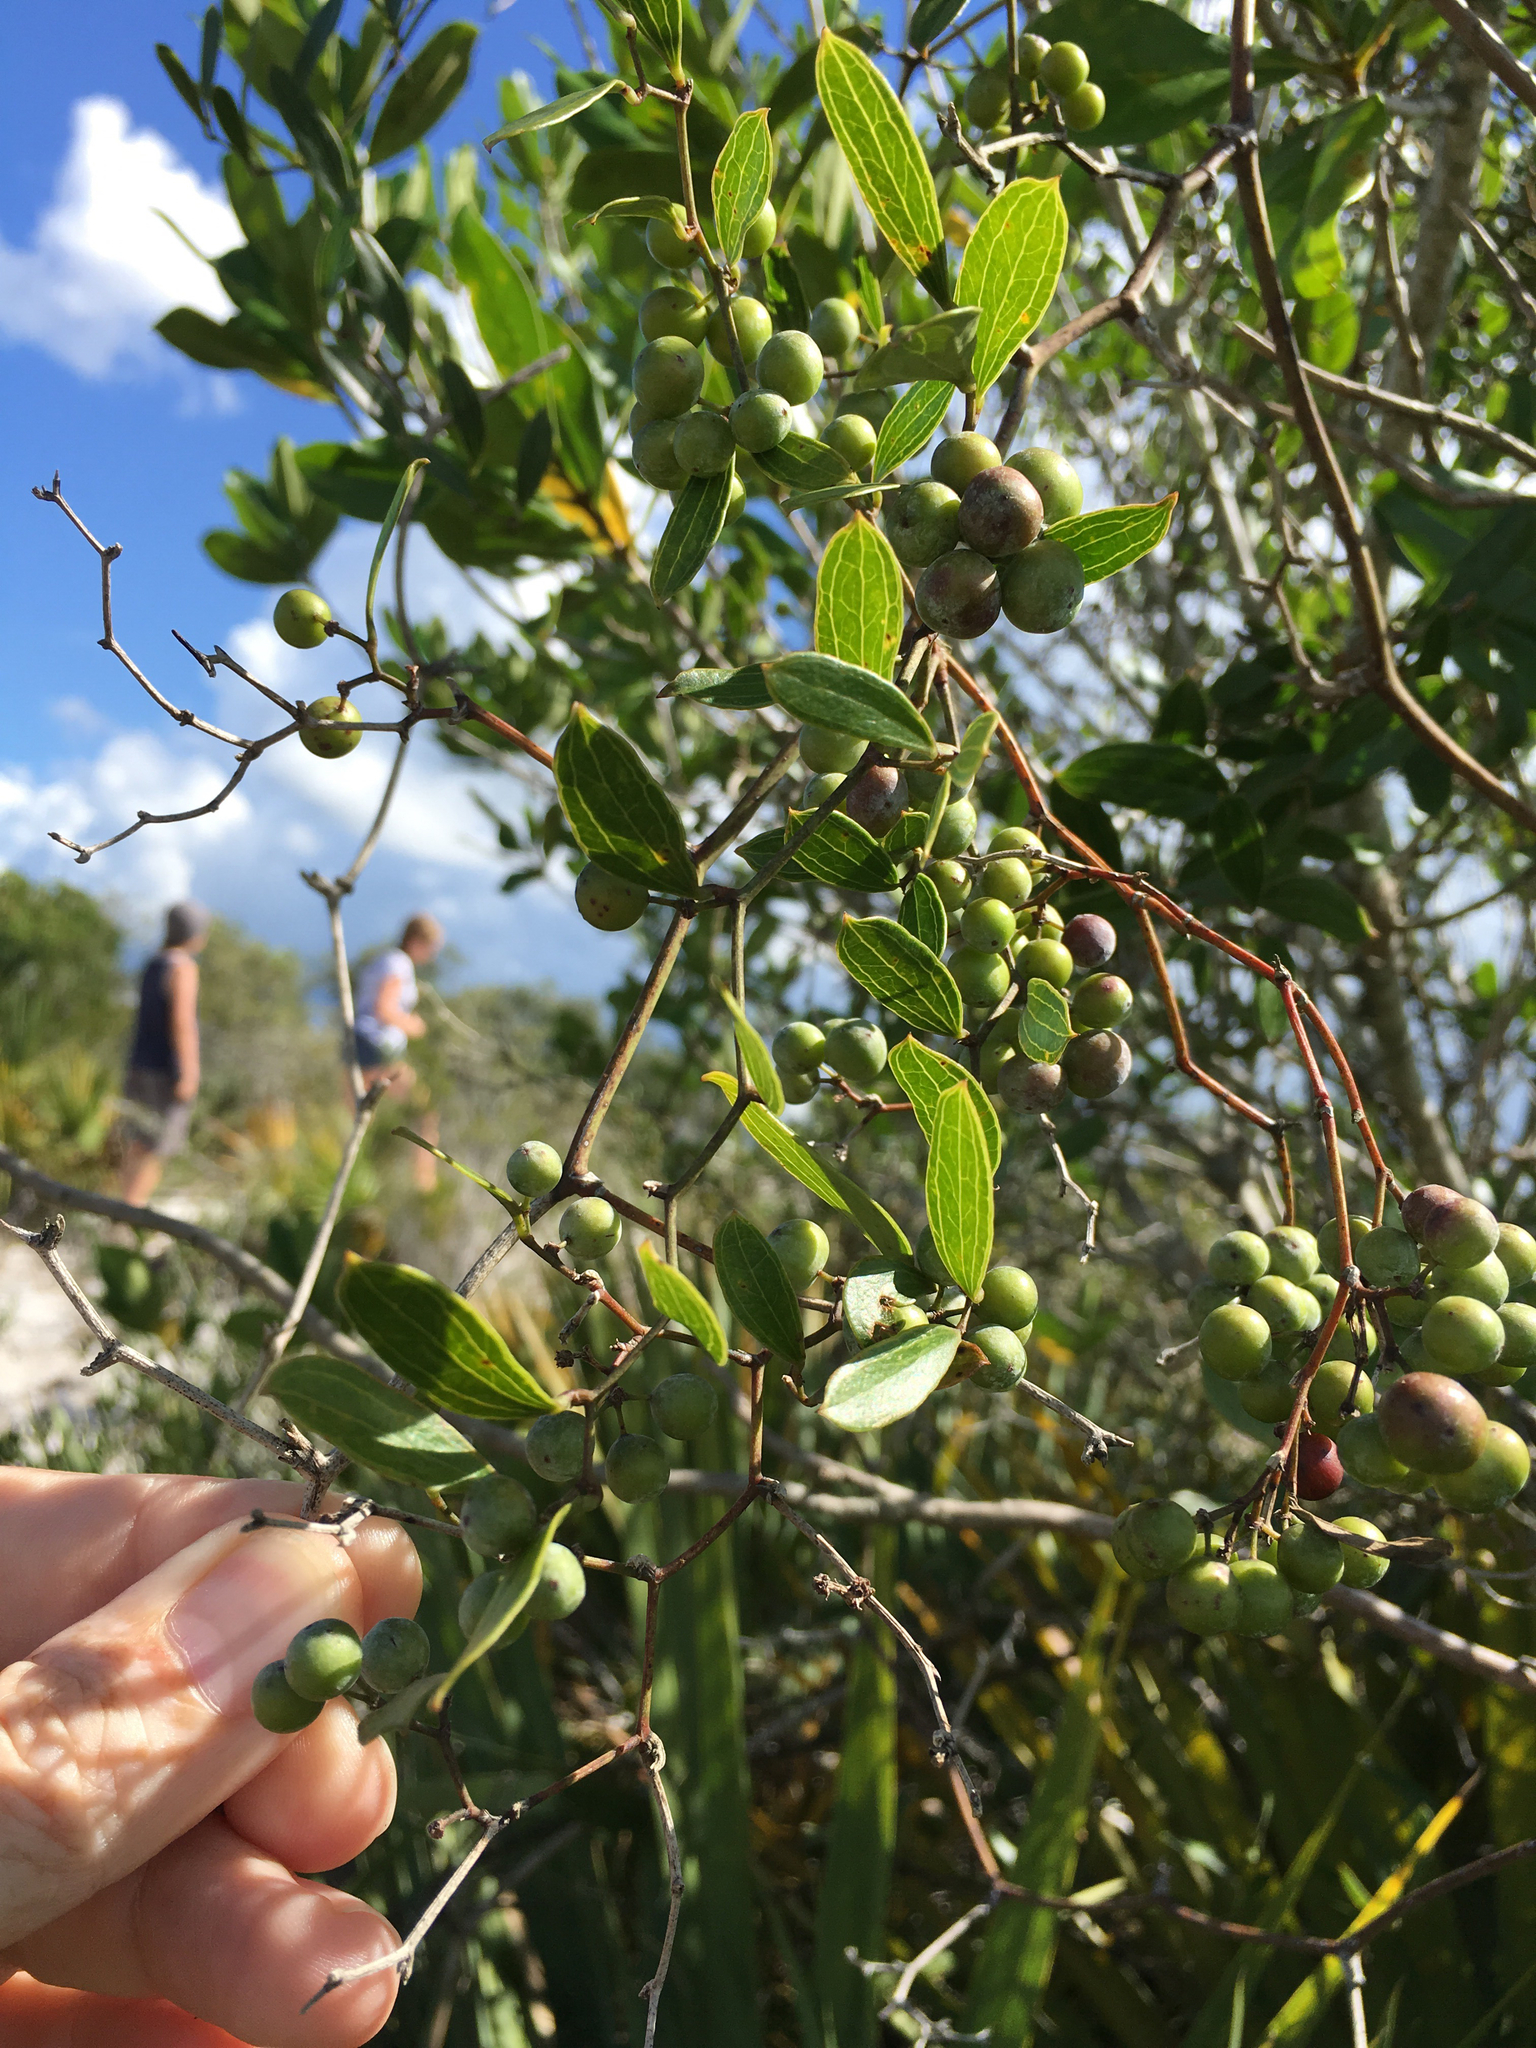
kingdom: Plantae
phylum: Tracheophyta
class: Liliopsida
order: Liliales
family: Smilacaceae
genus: Smilax
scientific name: Smilax auriculata
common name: Wild bamboo
